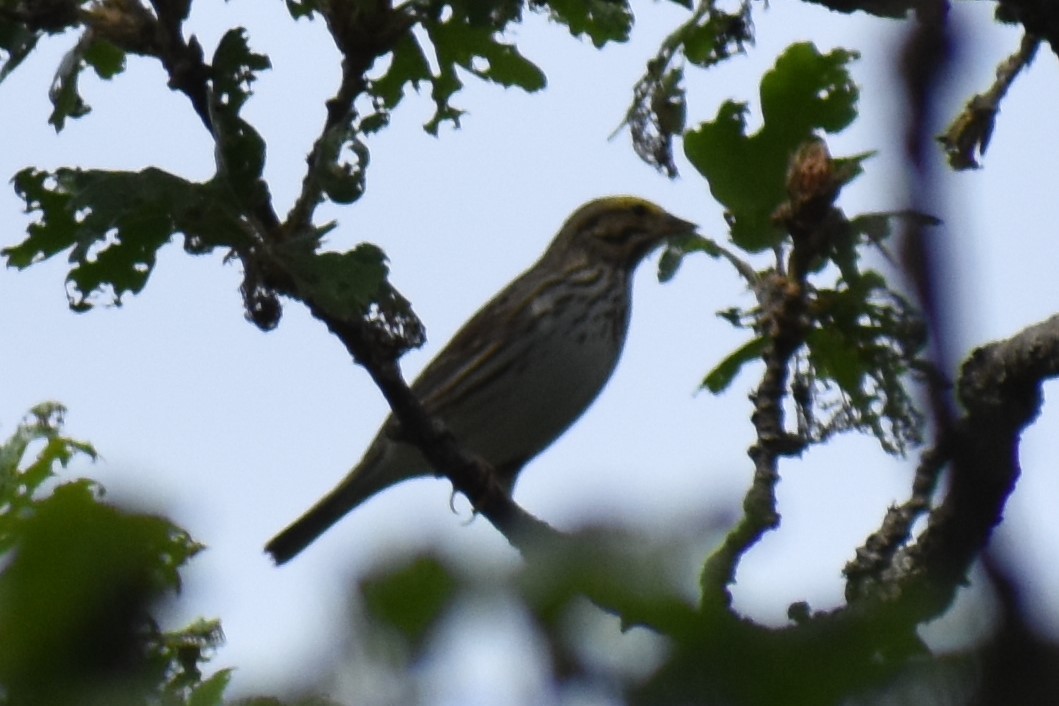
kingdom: Animalia
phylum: Chordata
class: Aves
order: Passeriformes
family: Passerellidae
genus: Passerculus
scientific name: Passerculus sandwichensis
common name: Savannah sparrow
